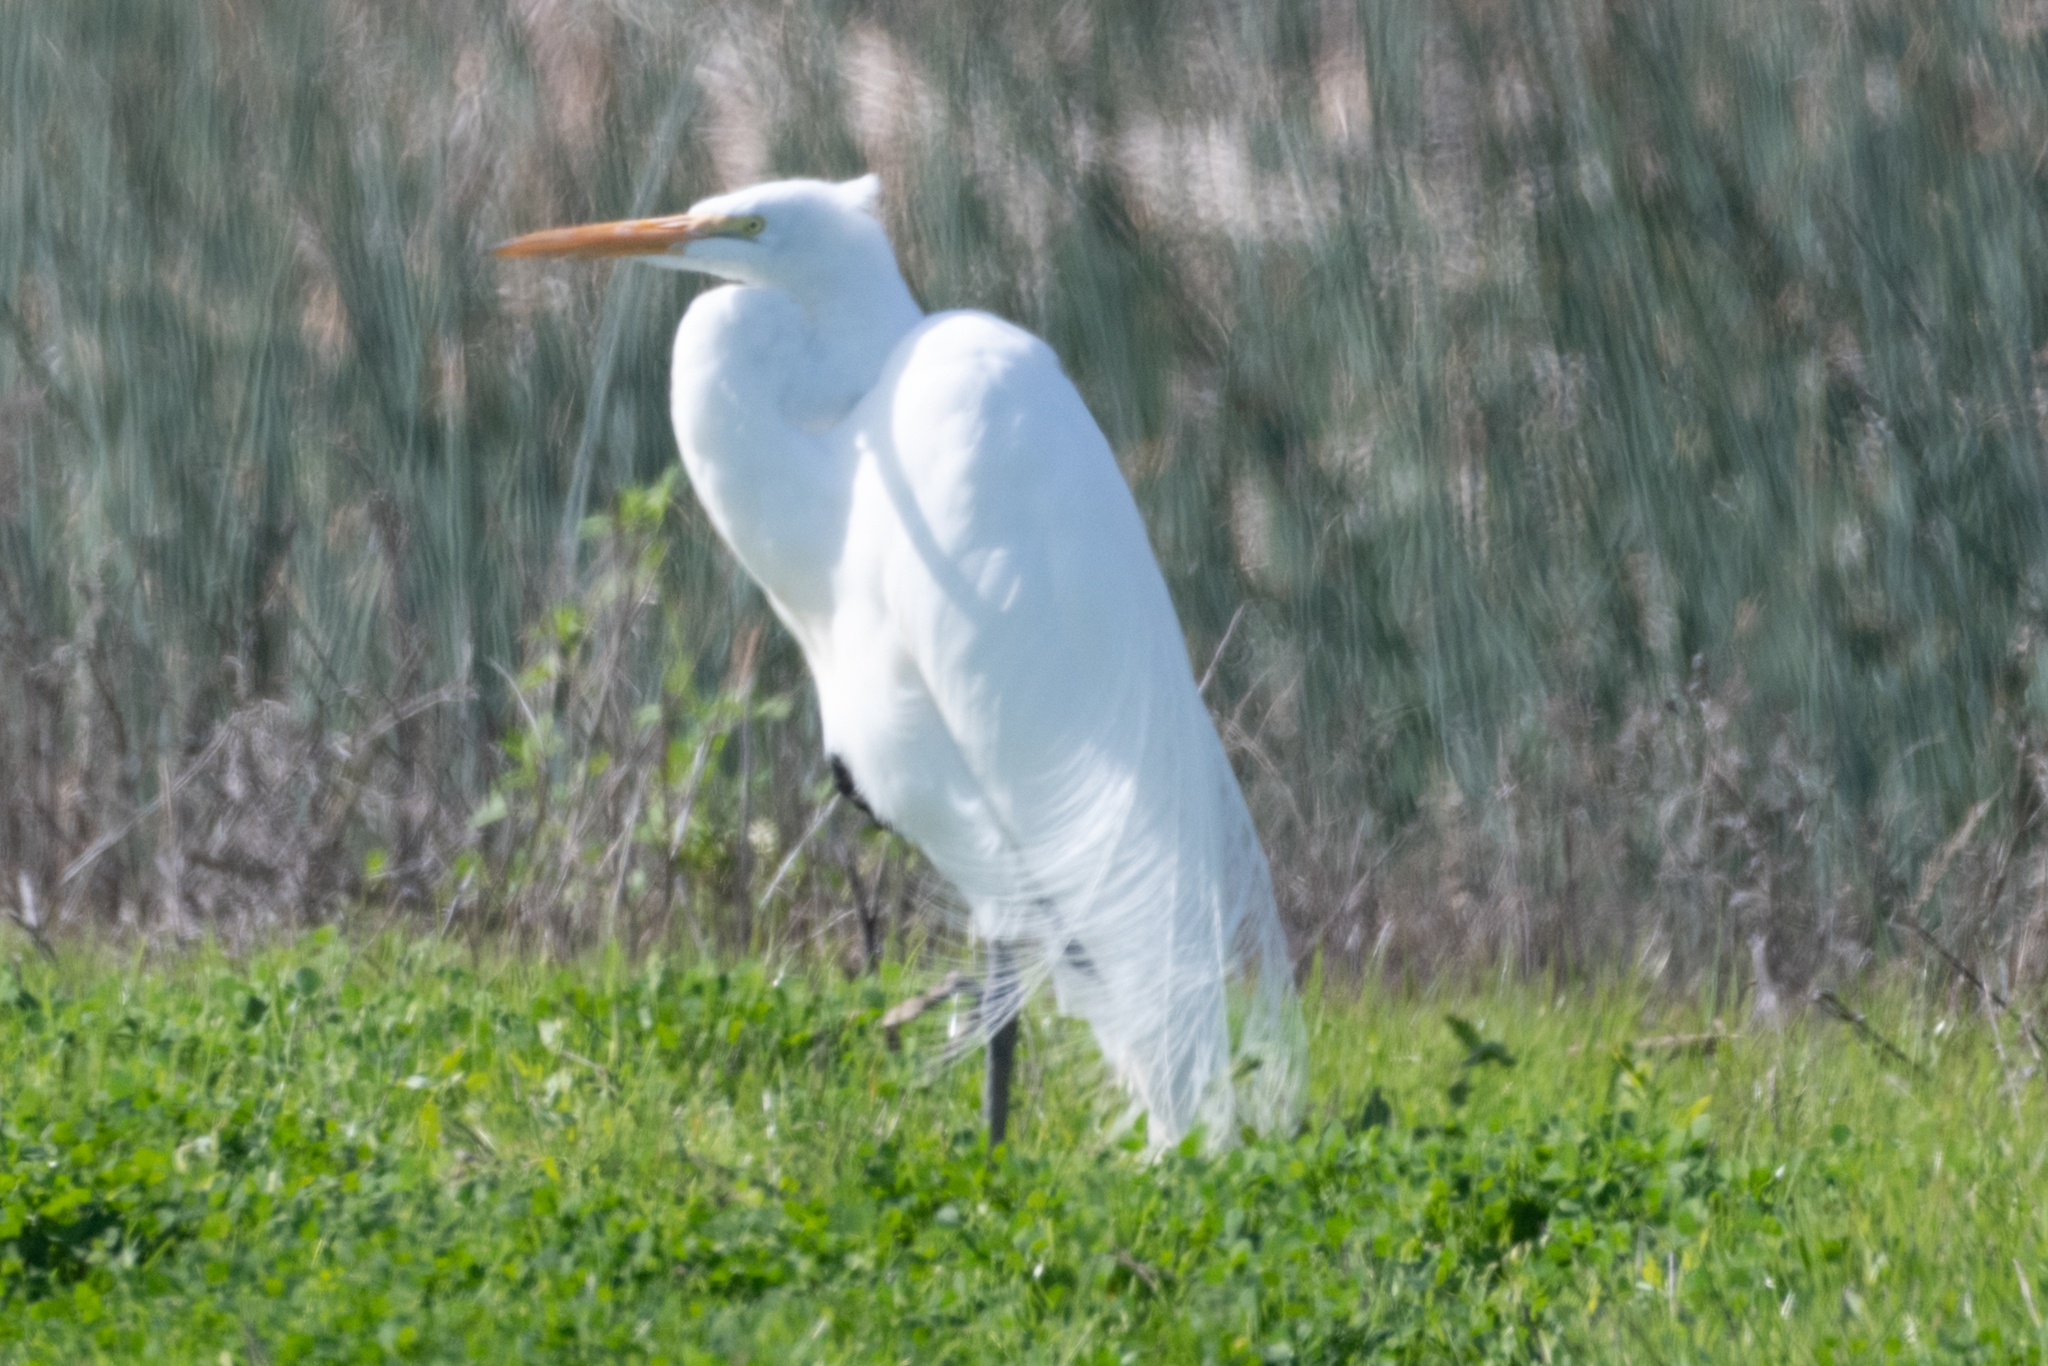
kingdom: Animalia
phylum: Chordata
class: Aves
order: Pelecaniformes
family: Ardeidae
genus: Ardea
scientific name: Ardea alba
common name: Great egret
